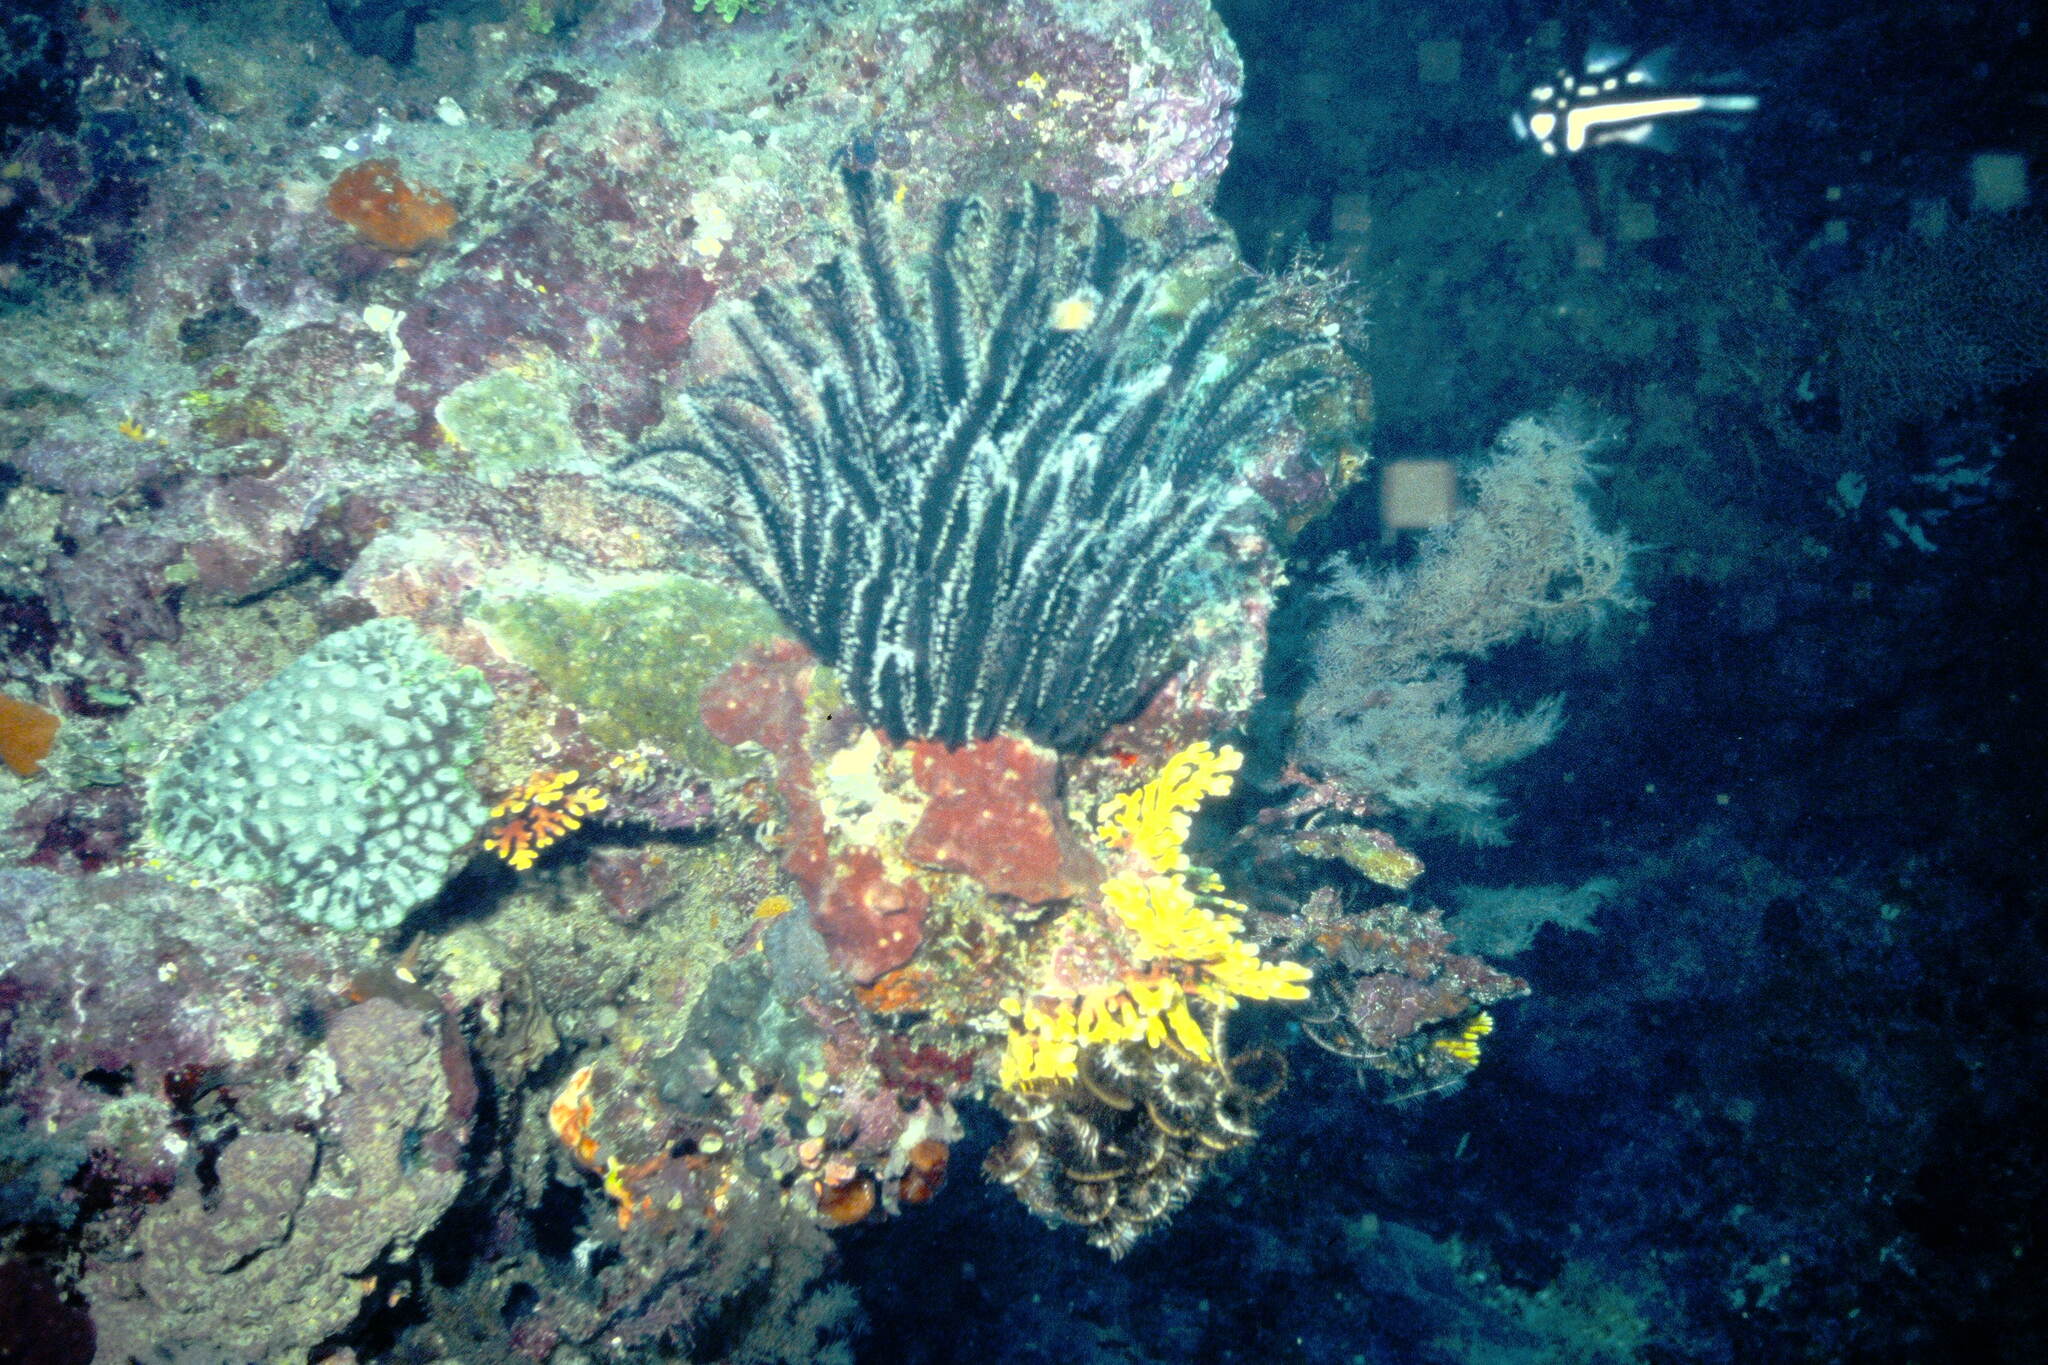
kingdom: Animalia
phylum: Chordata
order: Perciformes
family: Lutjanidae
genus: Macolor
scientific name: Macolor macularis
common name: Midnight snapper
